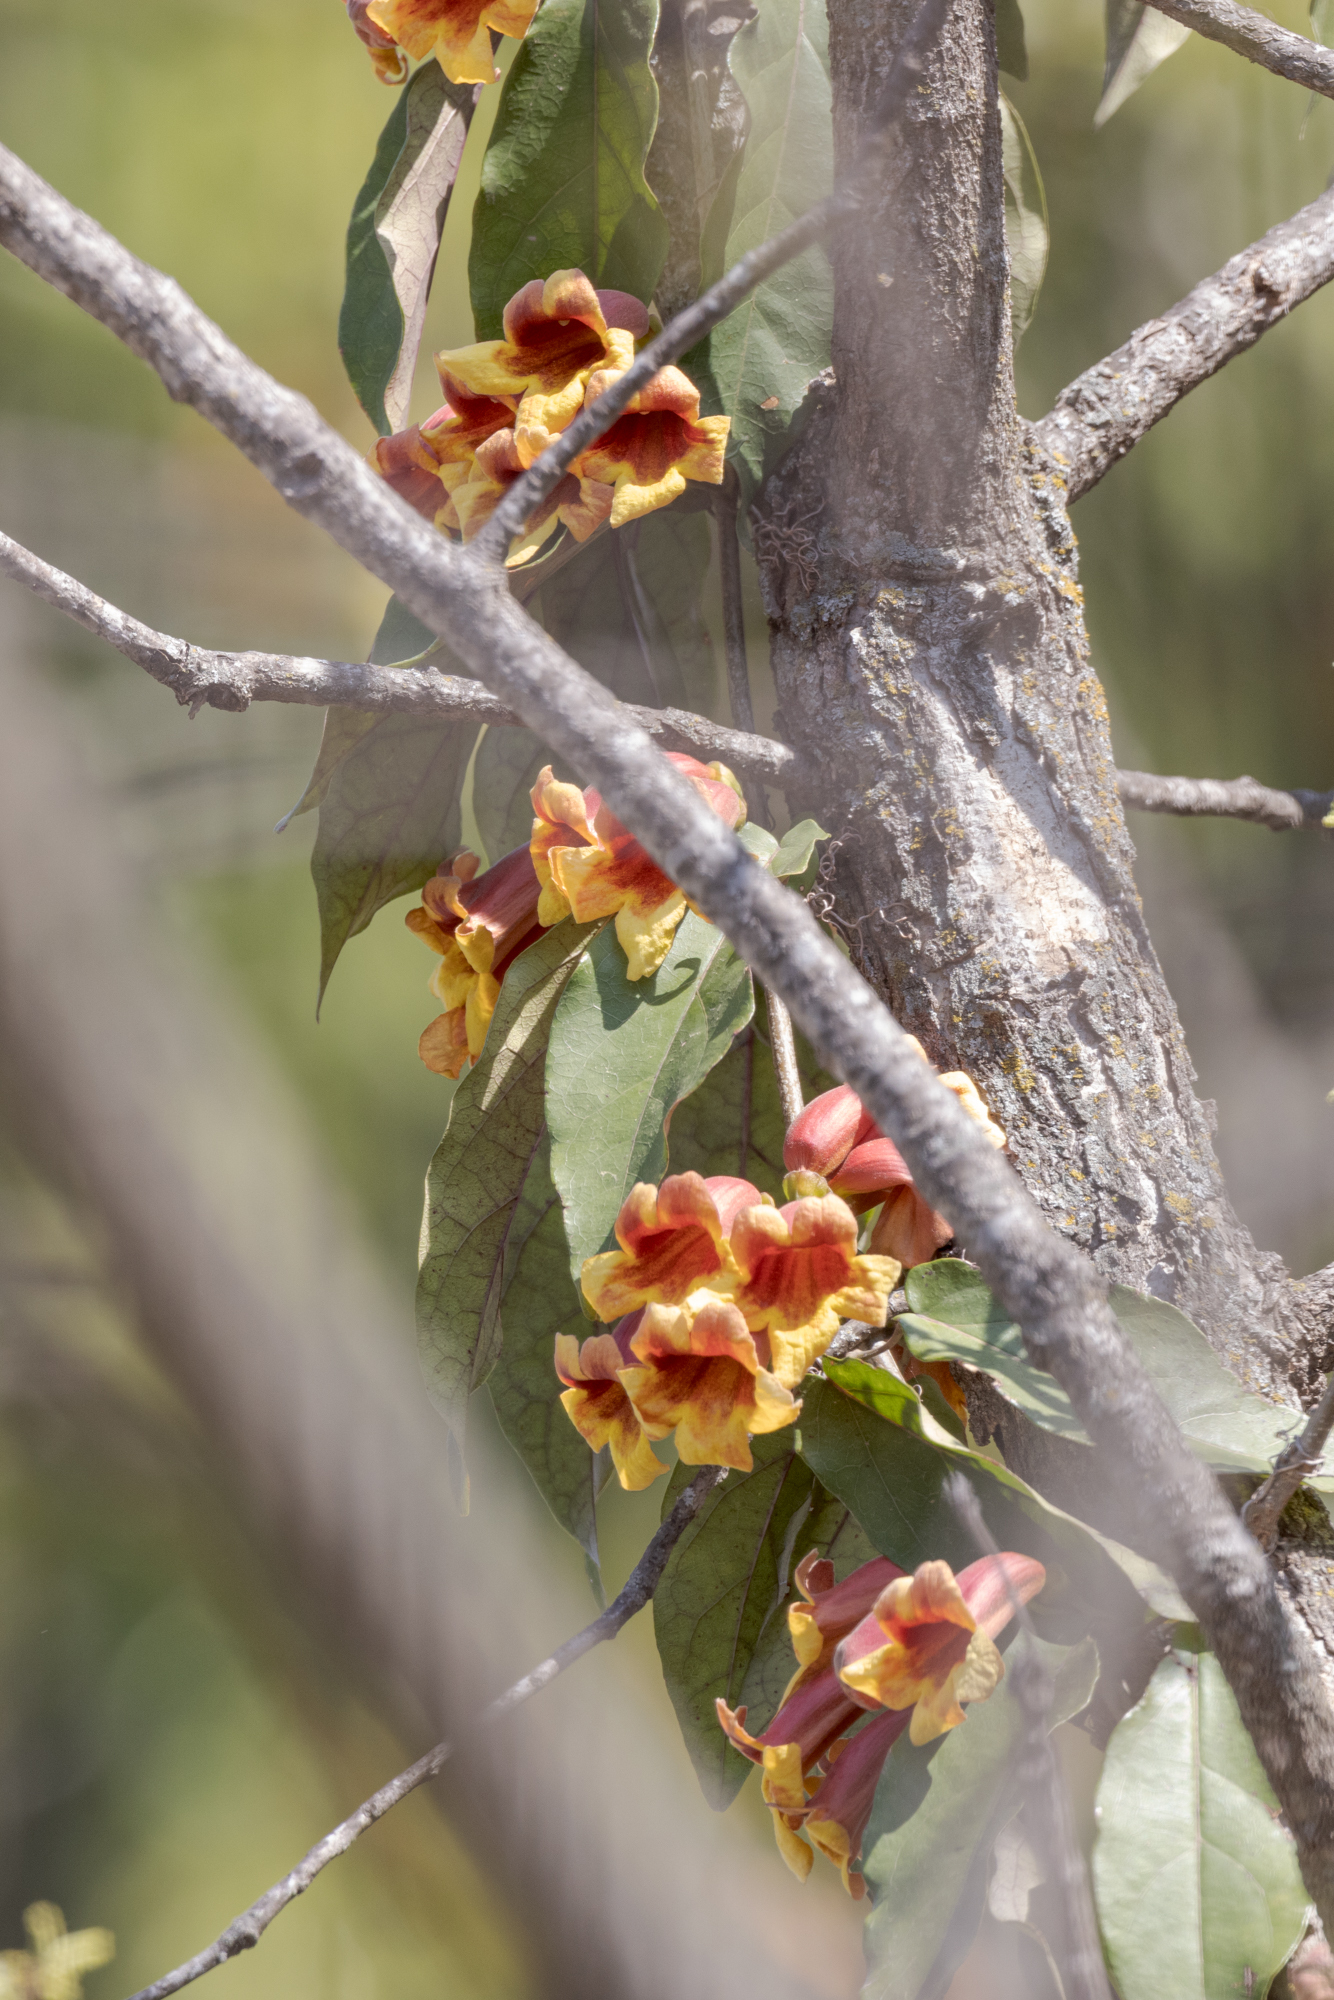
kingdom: Plantae
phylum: Tracheophyta
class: Magnoliopsida
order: Lamiales
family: Bignoniaceae
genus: Bignonia
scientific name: Bignonia capreolata
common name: Crossvine
